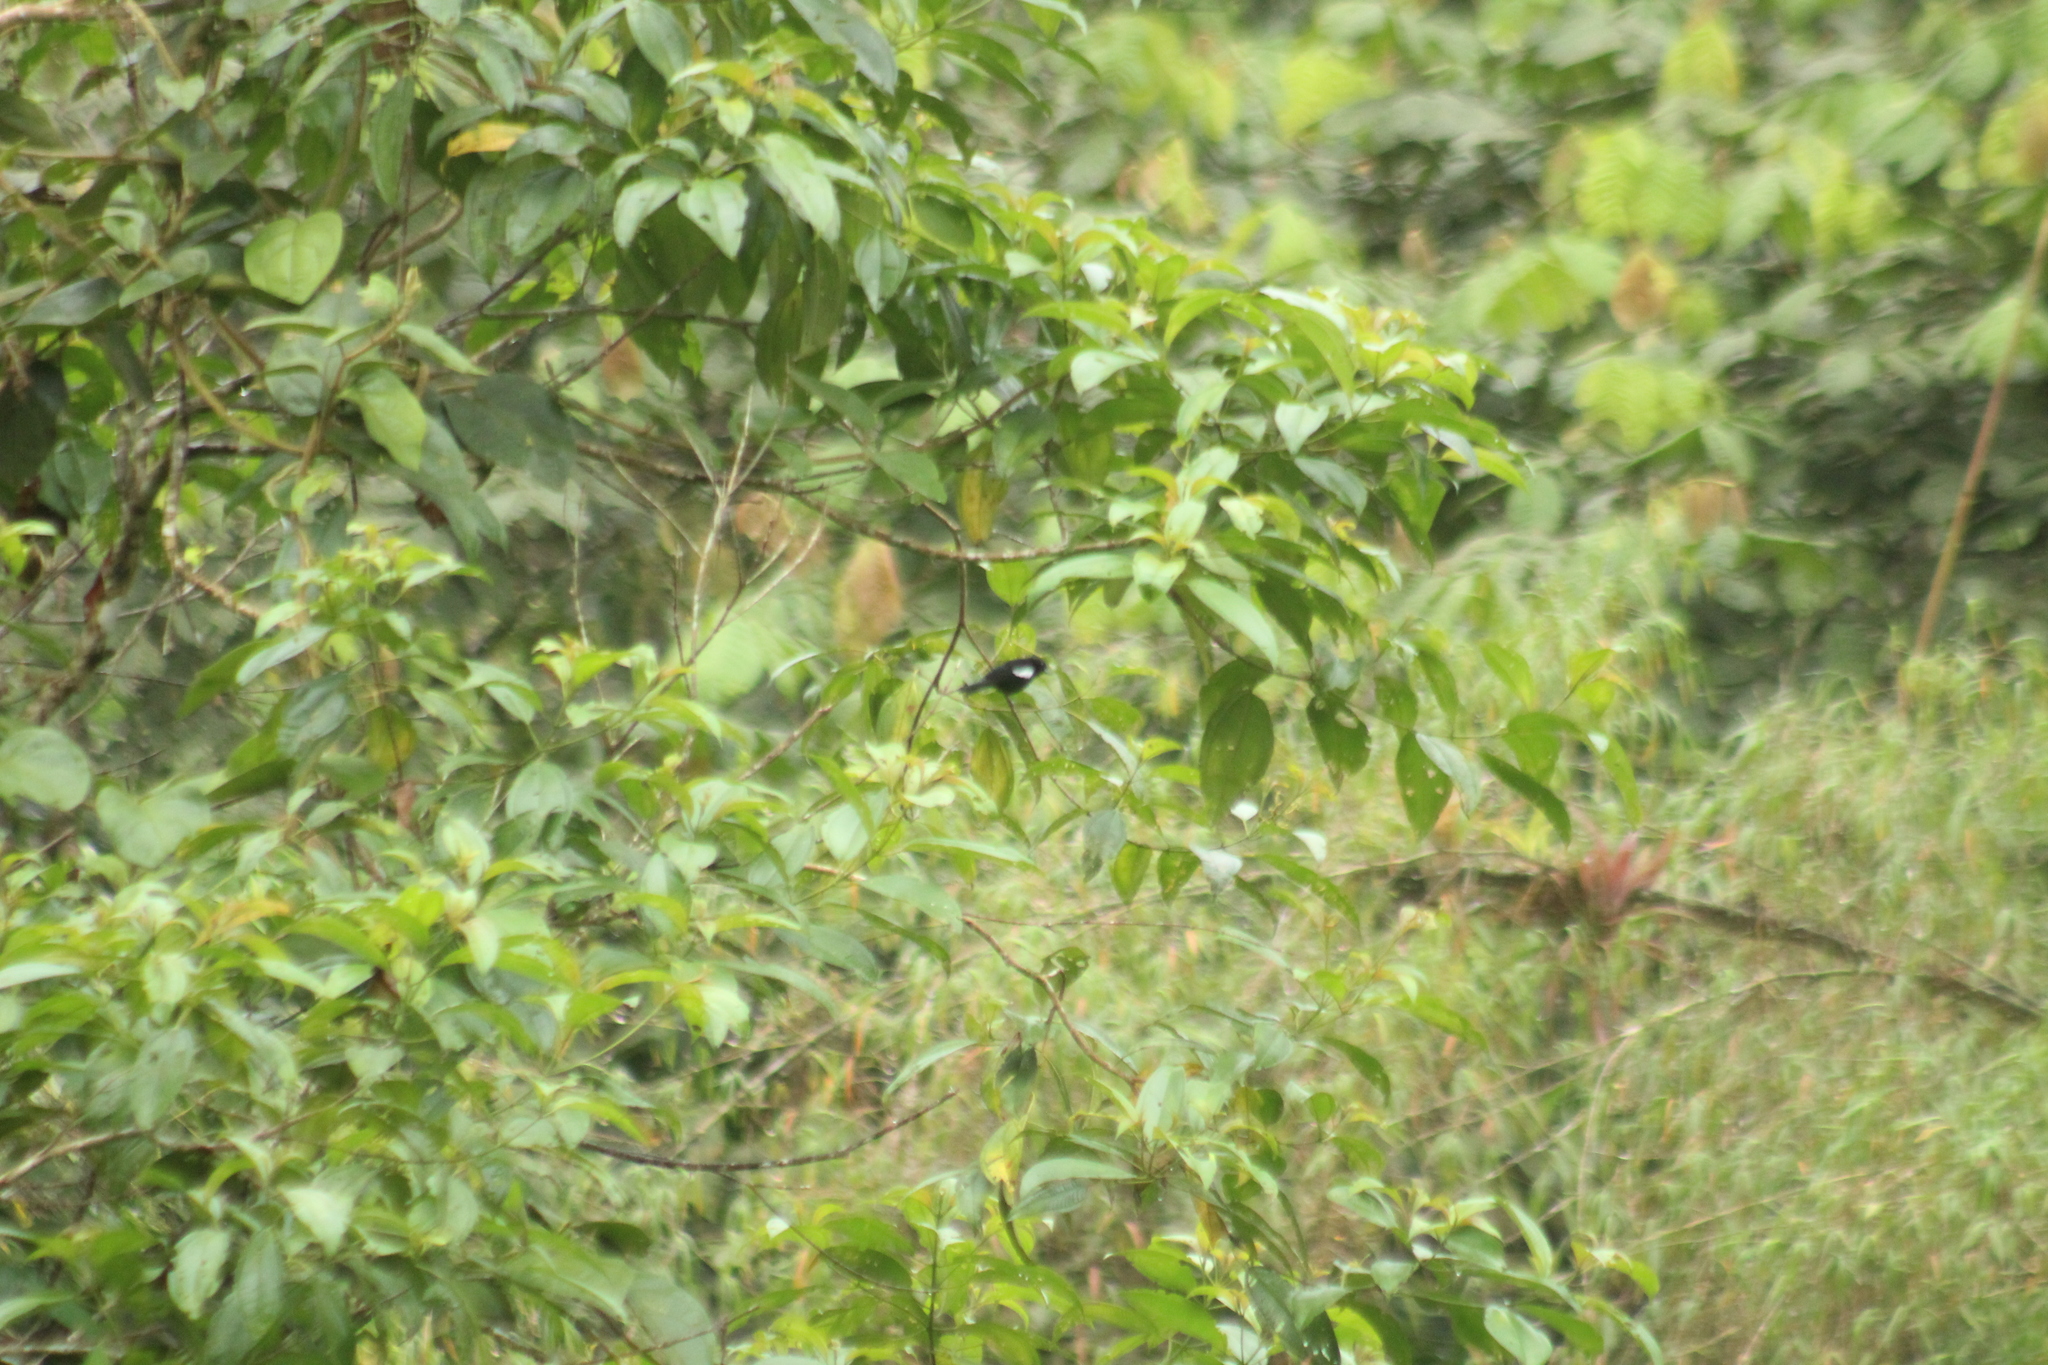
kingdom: Animalia
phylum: Chordata
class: Aves
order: Passeriformes
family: Thraupidae
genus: Loriotus
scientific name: Loriotus luctuosus
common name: White-shouldered tanager
